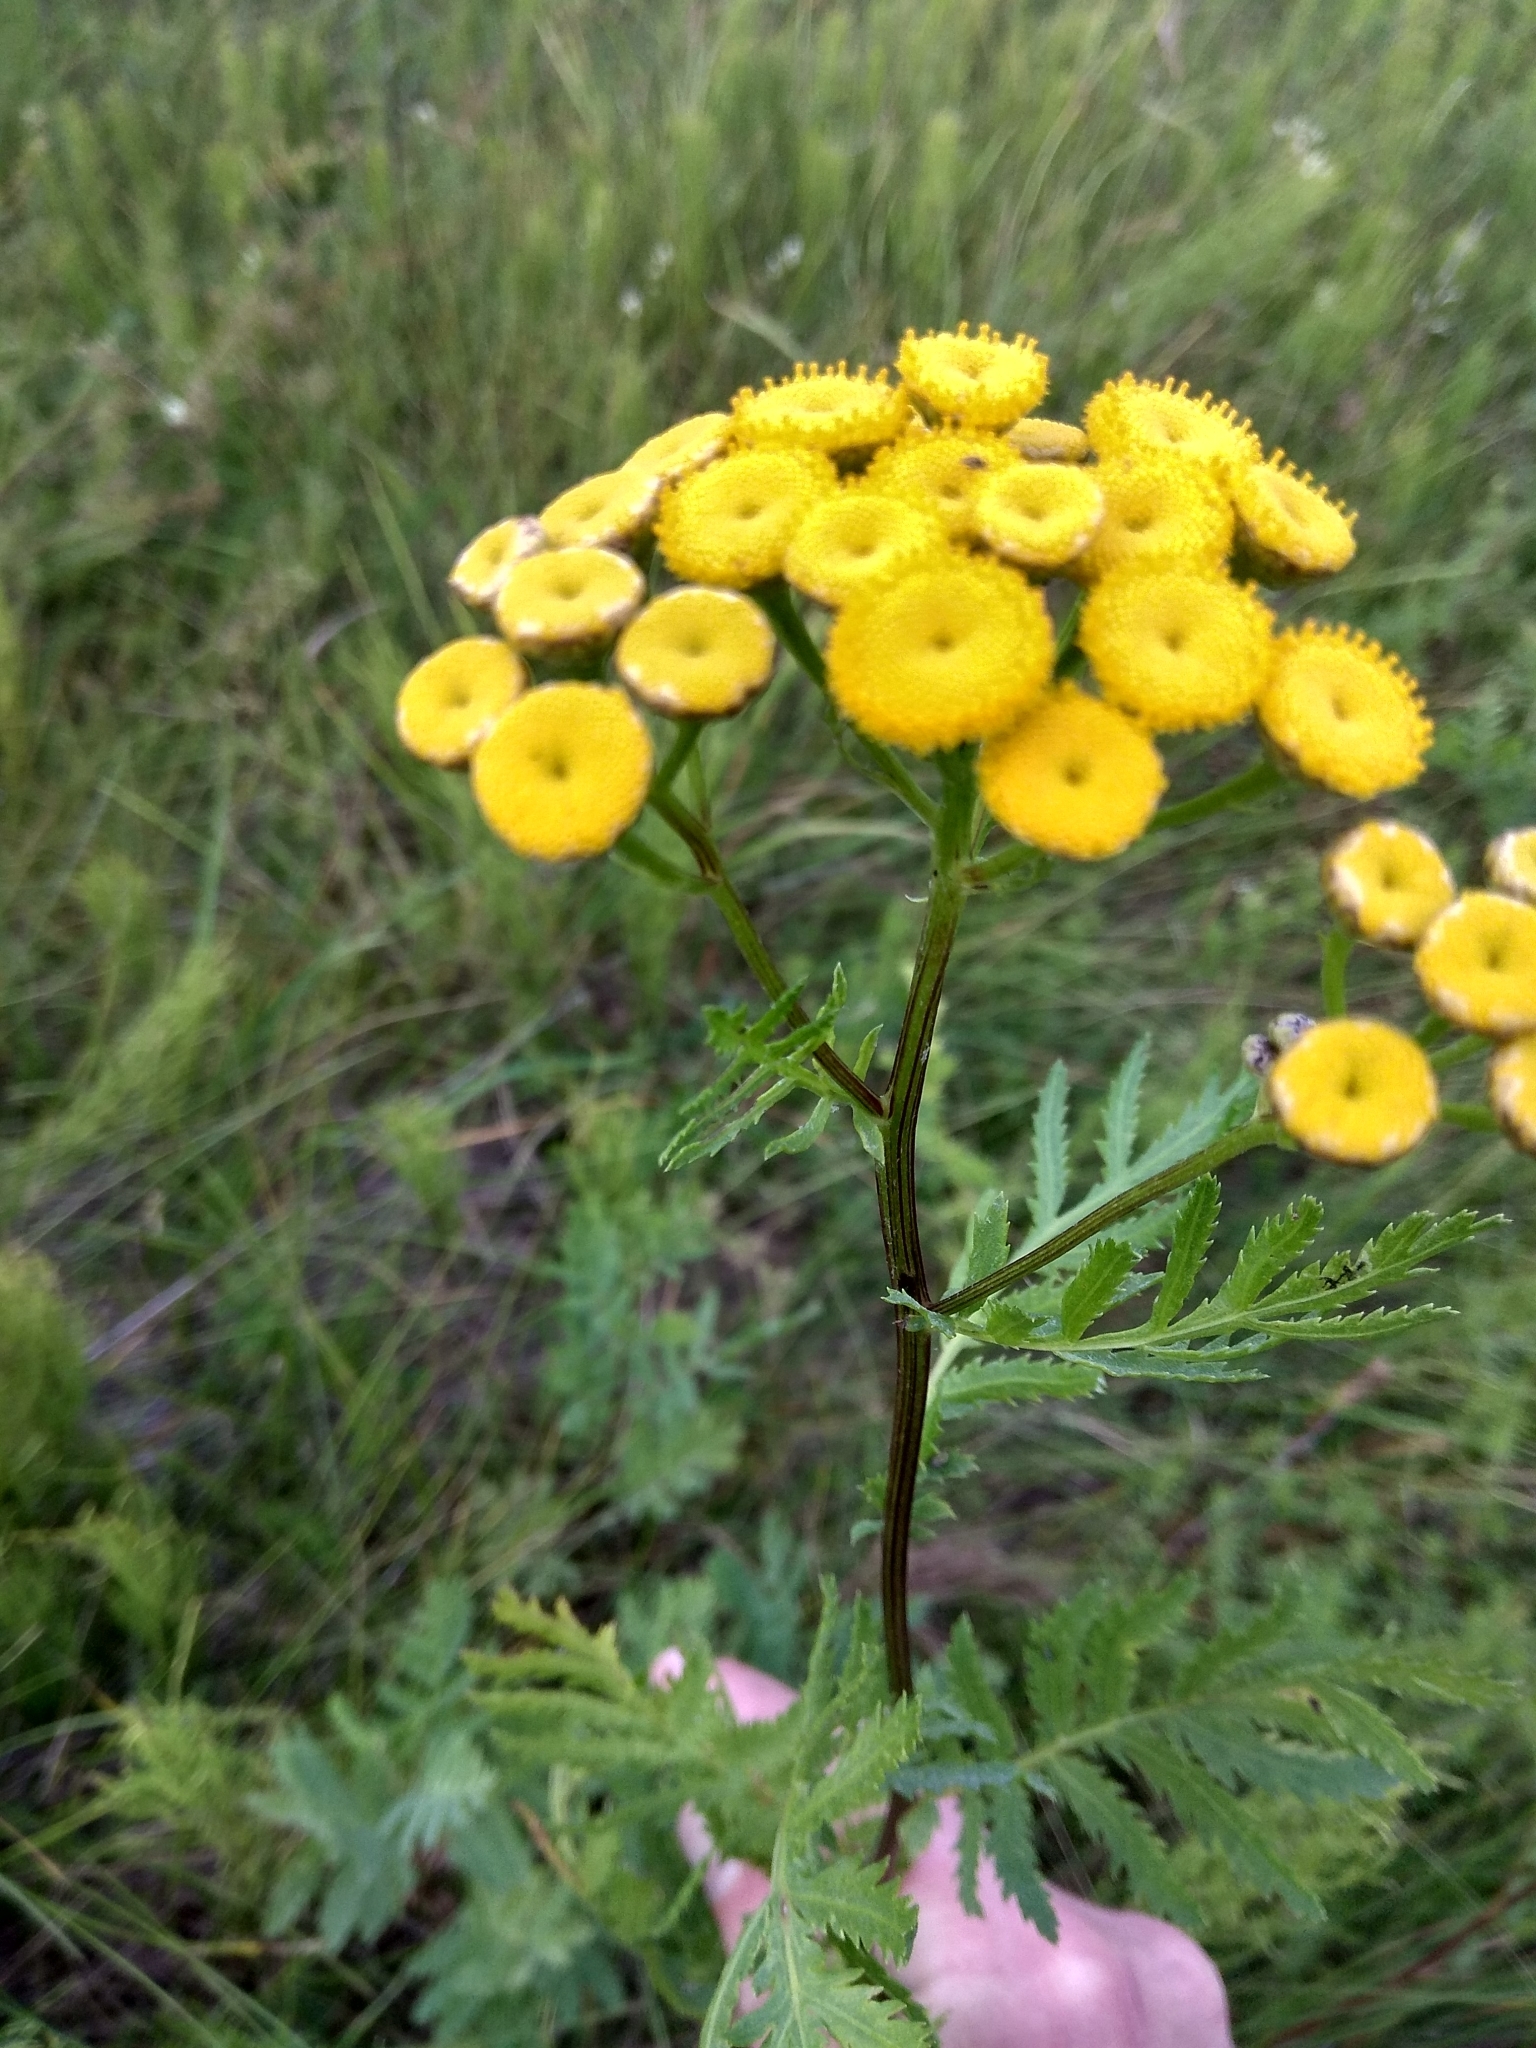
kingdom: Plantae
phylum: Tracheophyta
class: Magnoliopsida
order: Asterales
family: Asteraceae
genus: Tanacetum
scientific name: Tanacetum vulgare
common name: Common tansy
